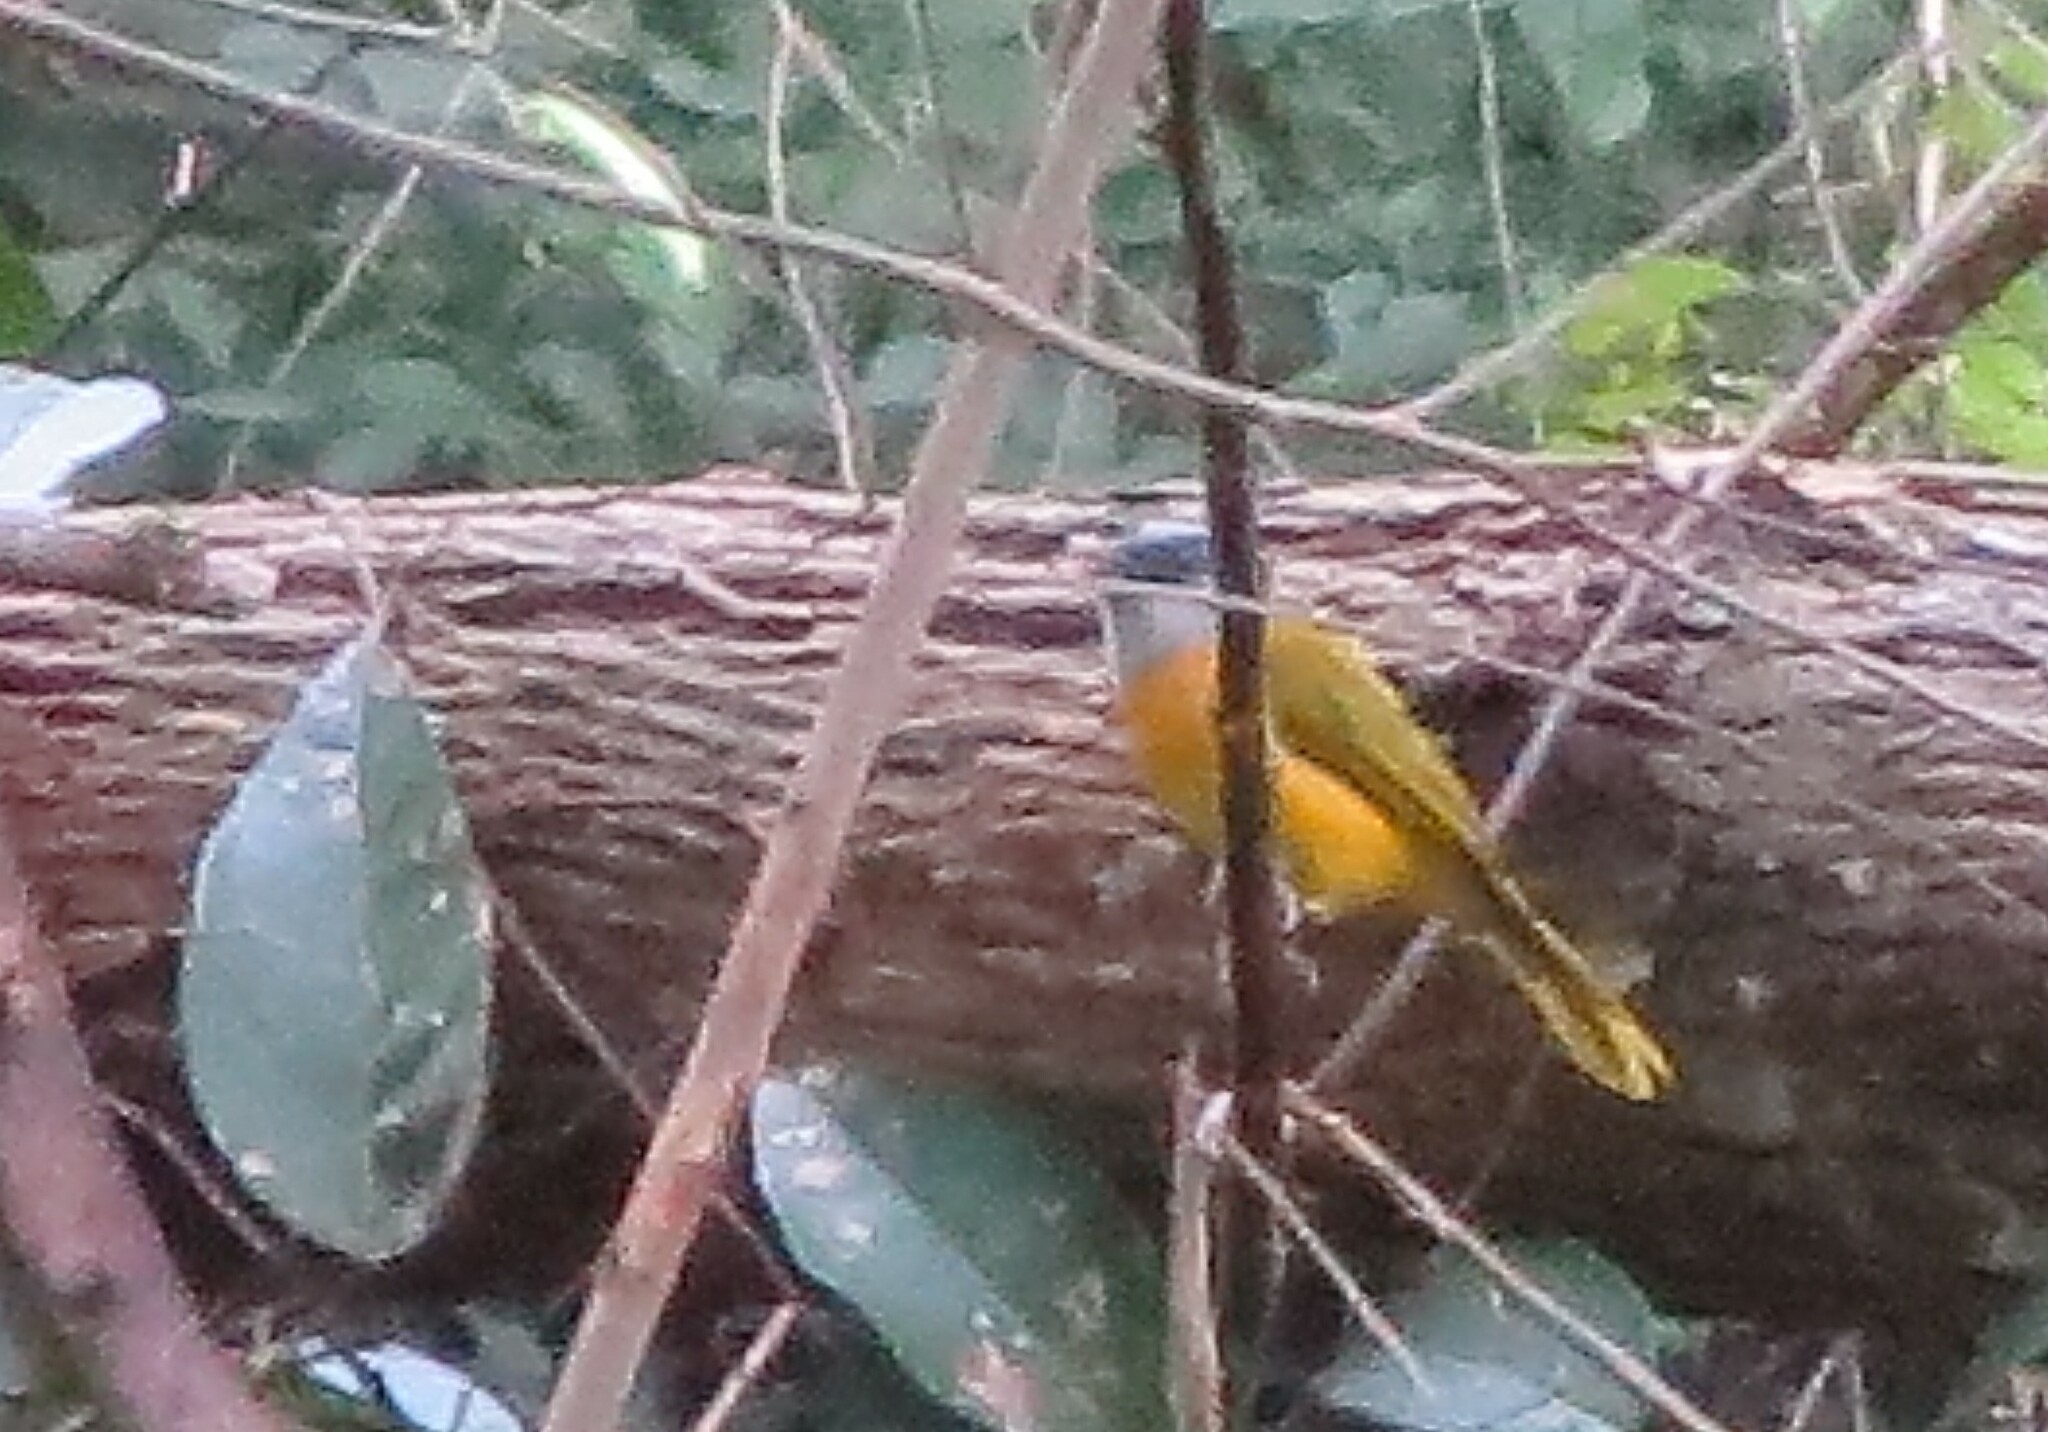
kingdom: Animalia
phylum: Chordata
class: Aves
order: Passeriformes
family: Thraupidae
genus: Eucometis
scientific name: Eucometis penicillata
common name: Grey-headed tanager
